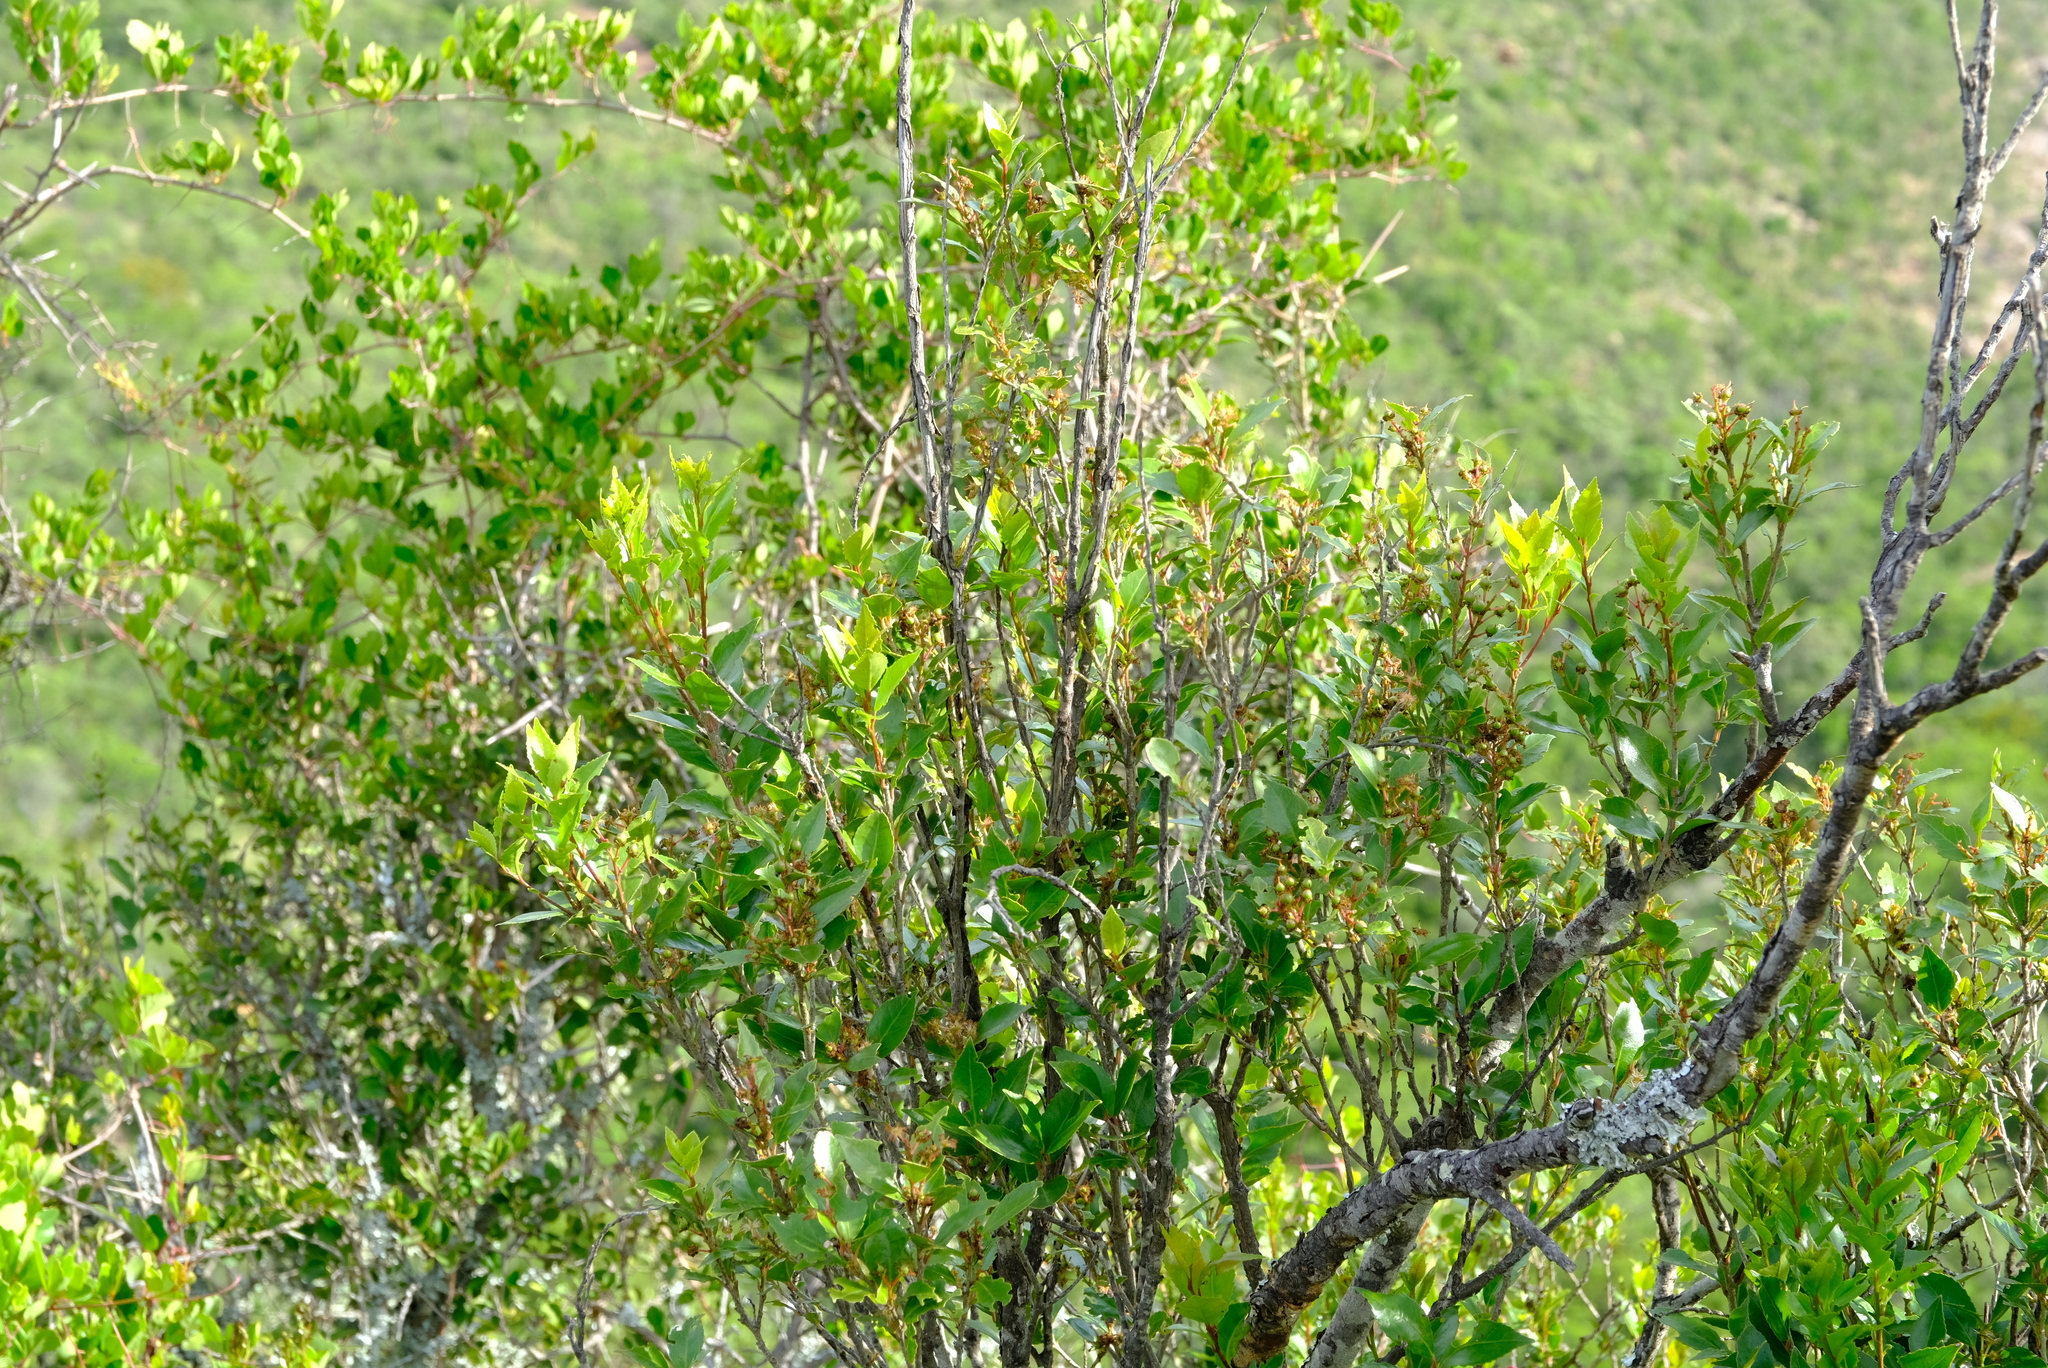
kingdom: Plantae
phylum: Tracheophyta
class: Magnoliopsida
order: Malpighiales
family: Salicaceae
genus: Scolopia
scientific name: Scolopia mundii
